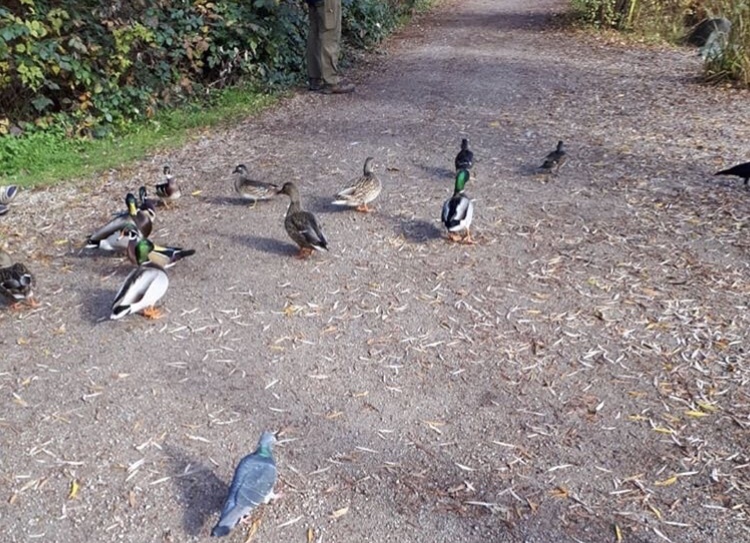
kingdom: Animalia
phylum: Chordata
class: Aves
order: Anseriformes
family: Anatidae
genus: Anas
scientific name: Anas platyrhynchos
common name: Mallard
